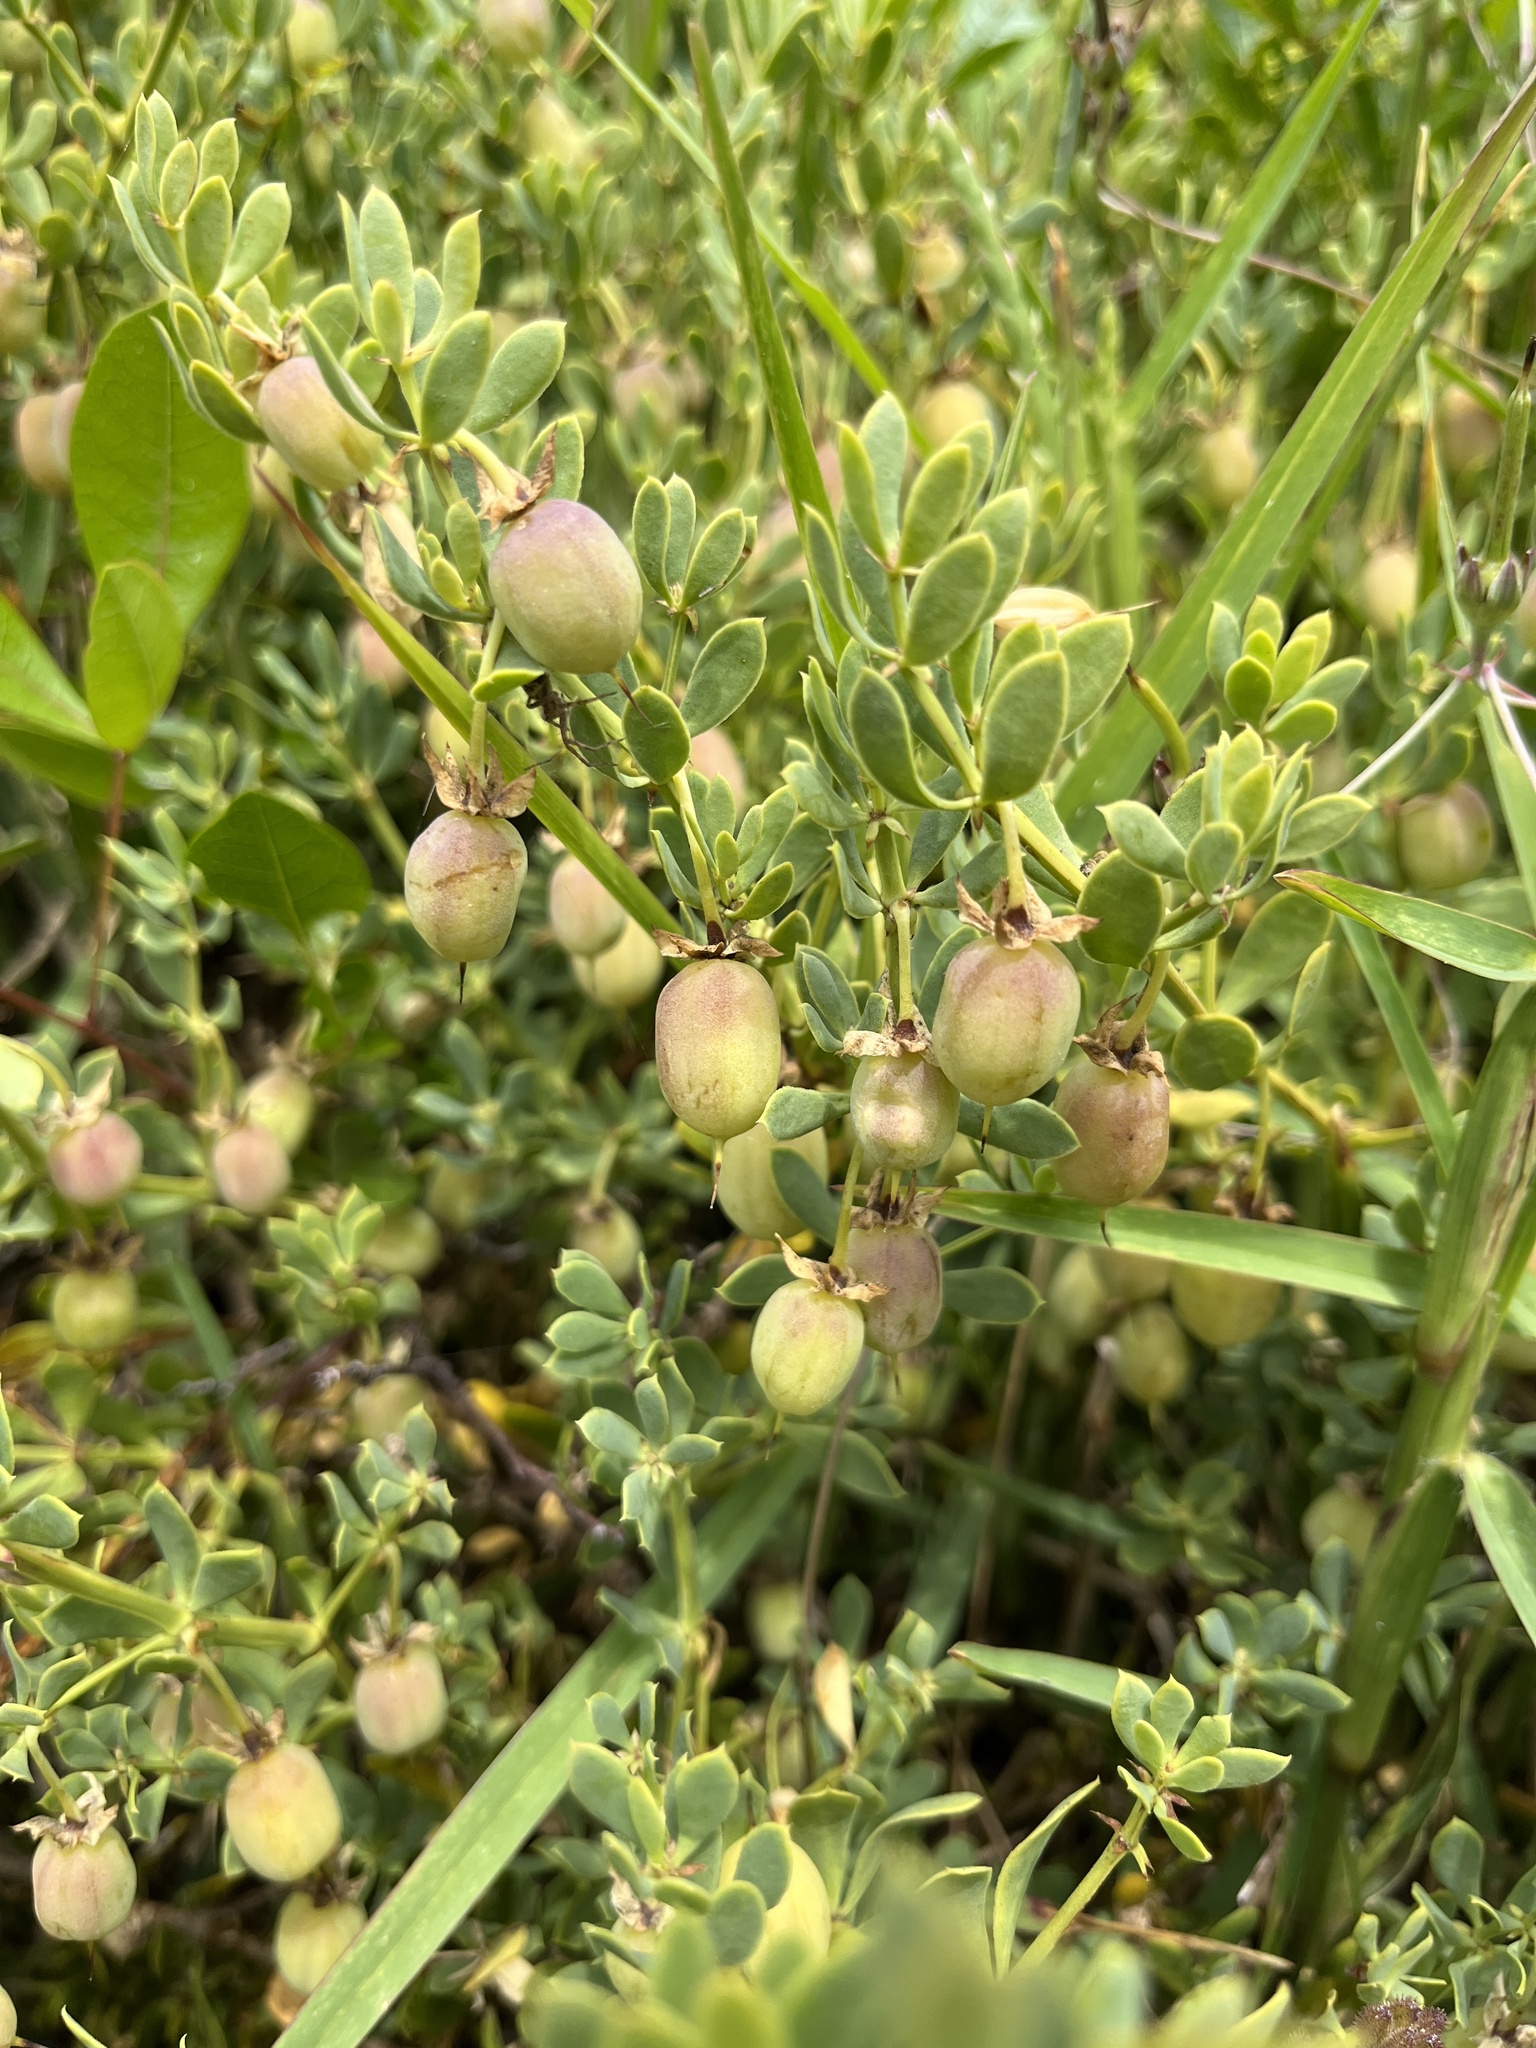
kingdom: Plantae
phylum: Tracheophyta
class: Magnoliopsida
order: Zygophyllales
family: Zygophyllaceae
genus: Roepera
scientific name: Roepera flexuosa
